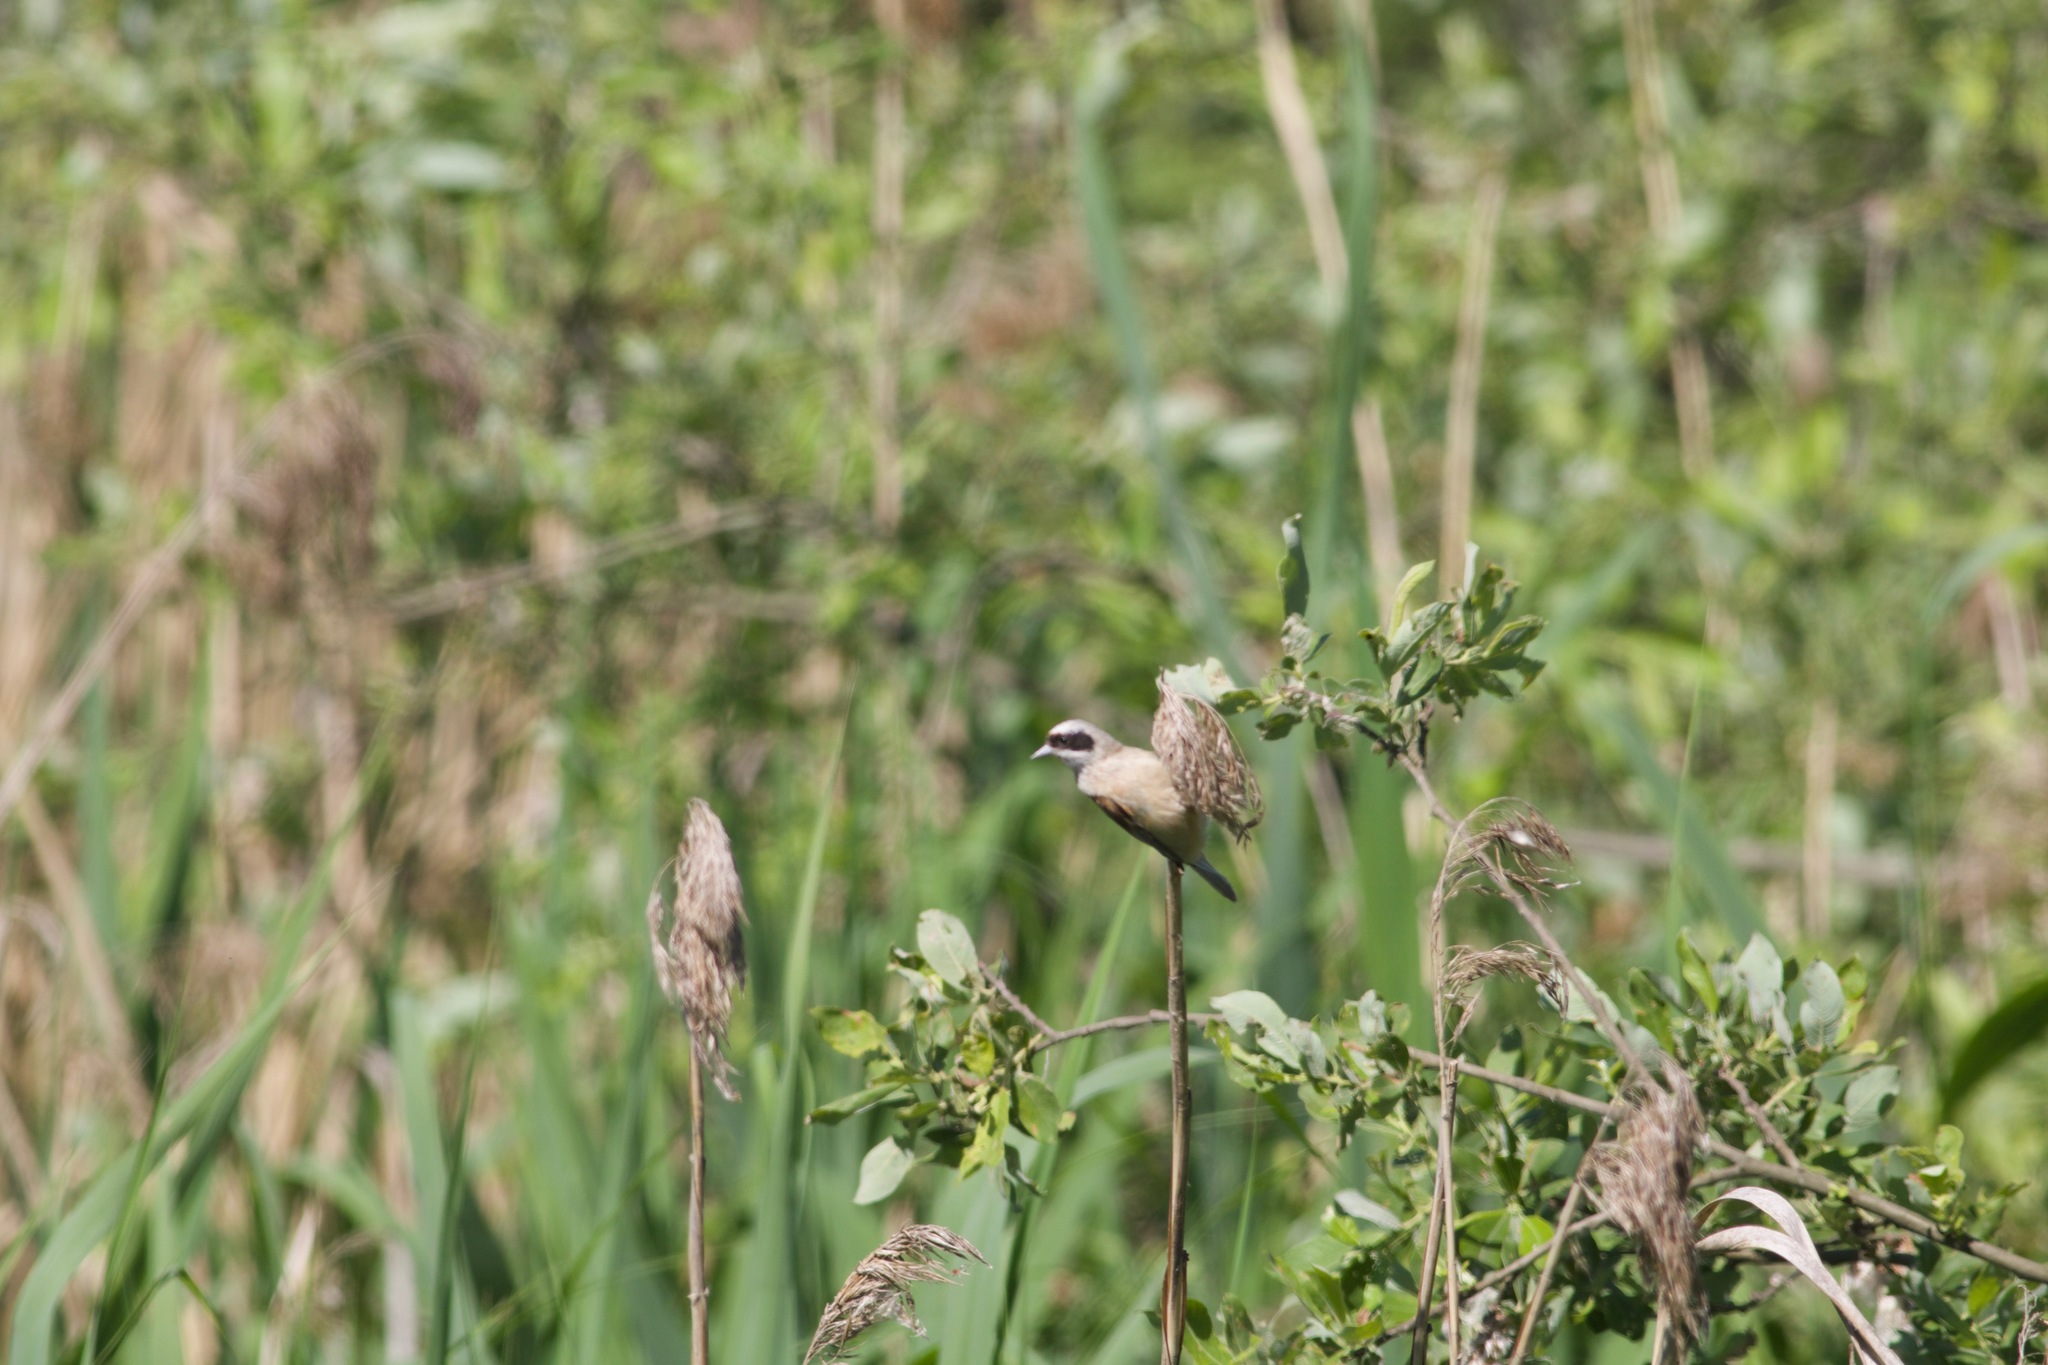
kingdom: Animalia
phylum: Chordata
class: Aves
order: Passeriformes
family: Remizidae
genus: Remiz
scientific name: Remiz pendulinus
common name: Eurasian penduline tit
